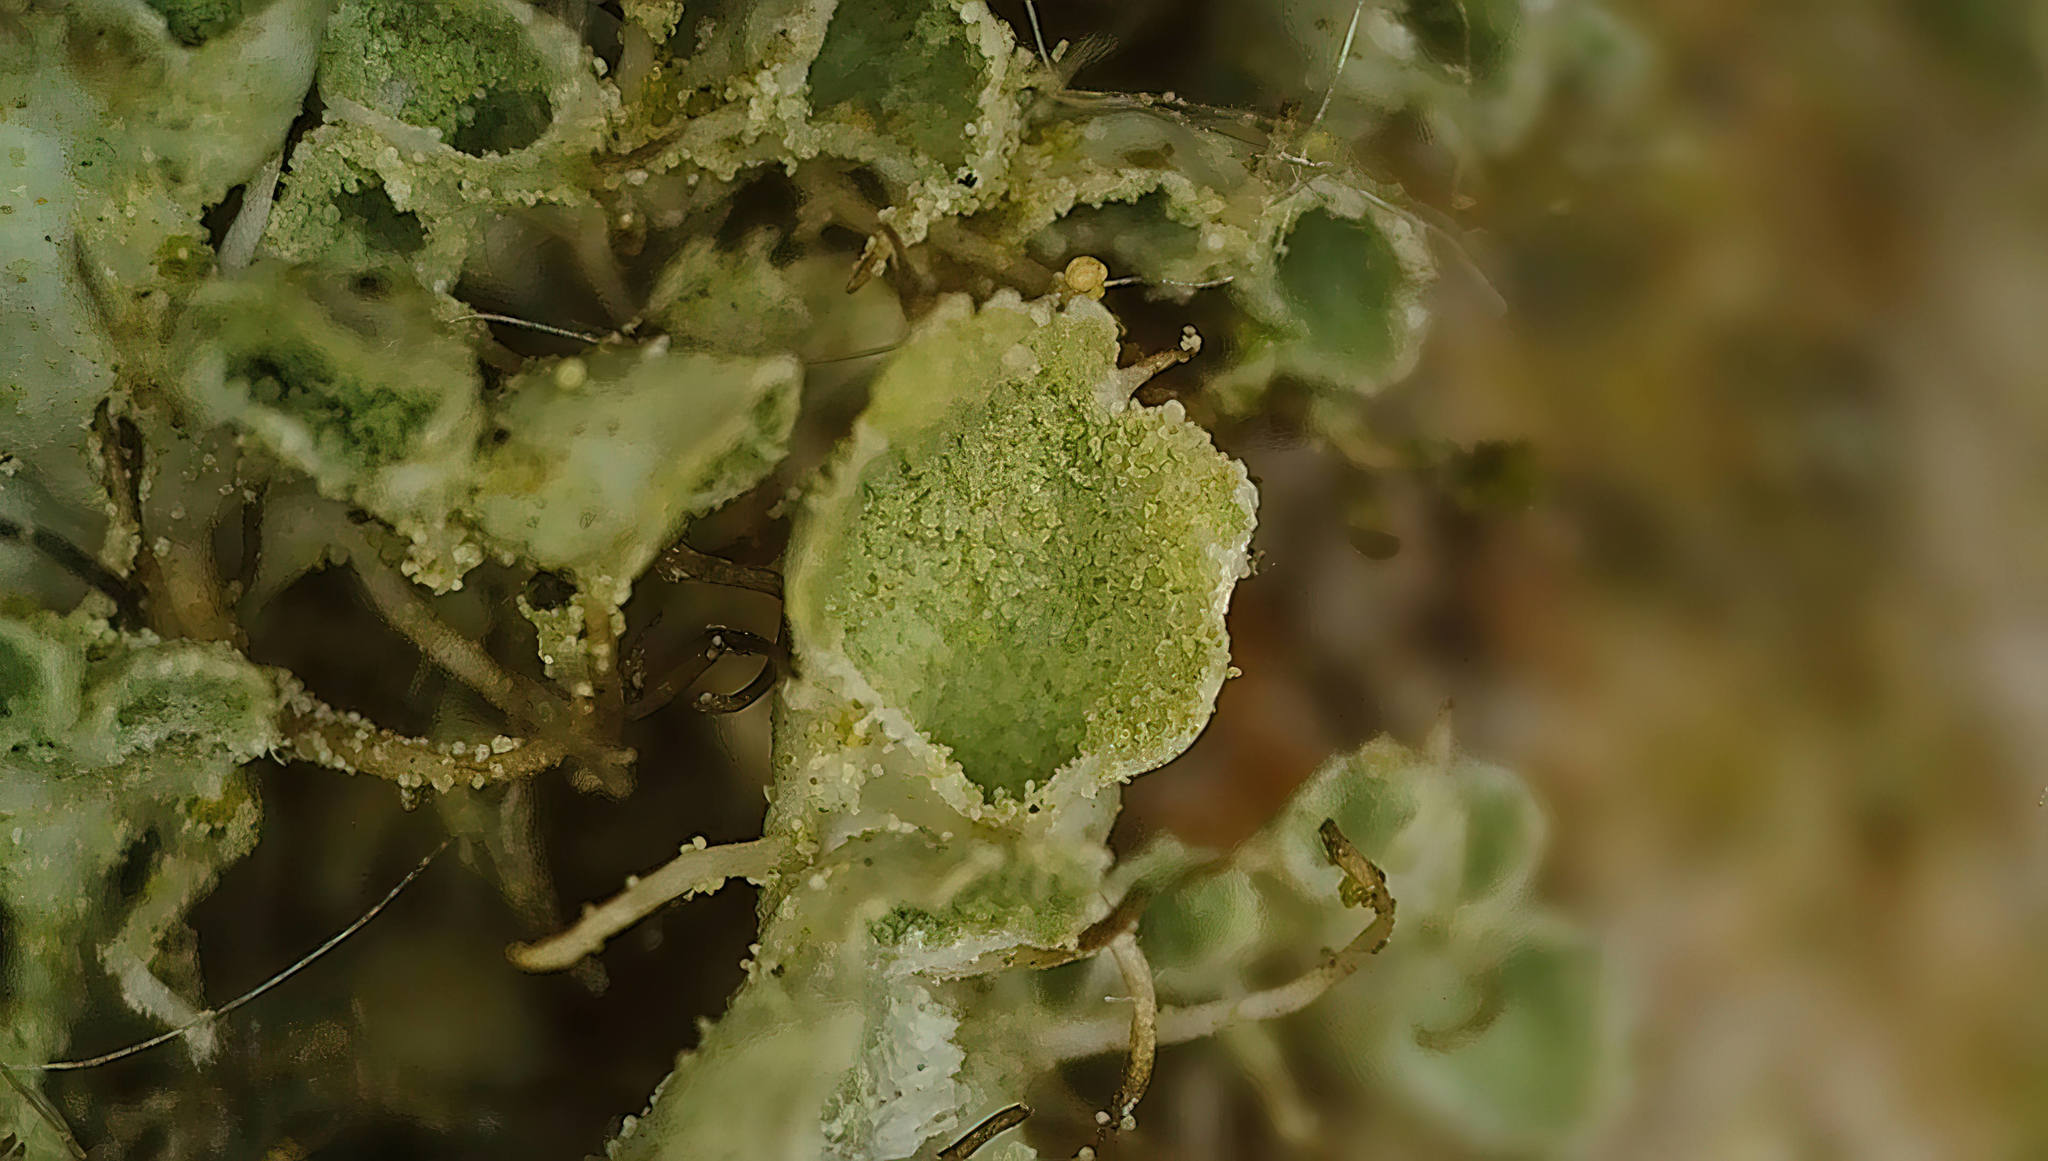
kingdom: Fungi
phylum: Ascomycota
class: Lecanoromycetes
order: Caliciales
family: Physciaceae
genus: Physcia
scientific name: Physcia adscendens
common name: Hooded rosette lichen
